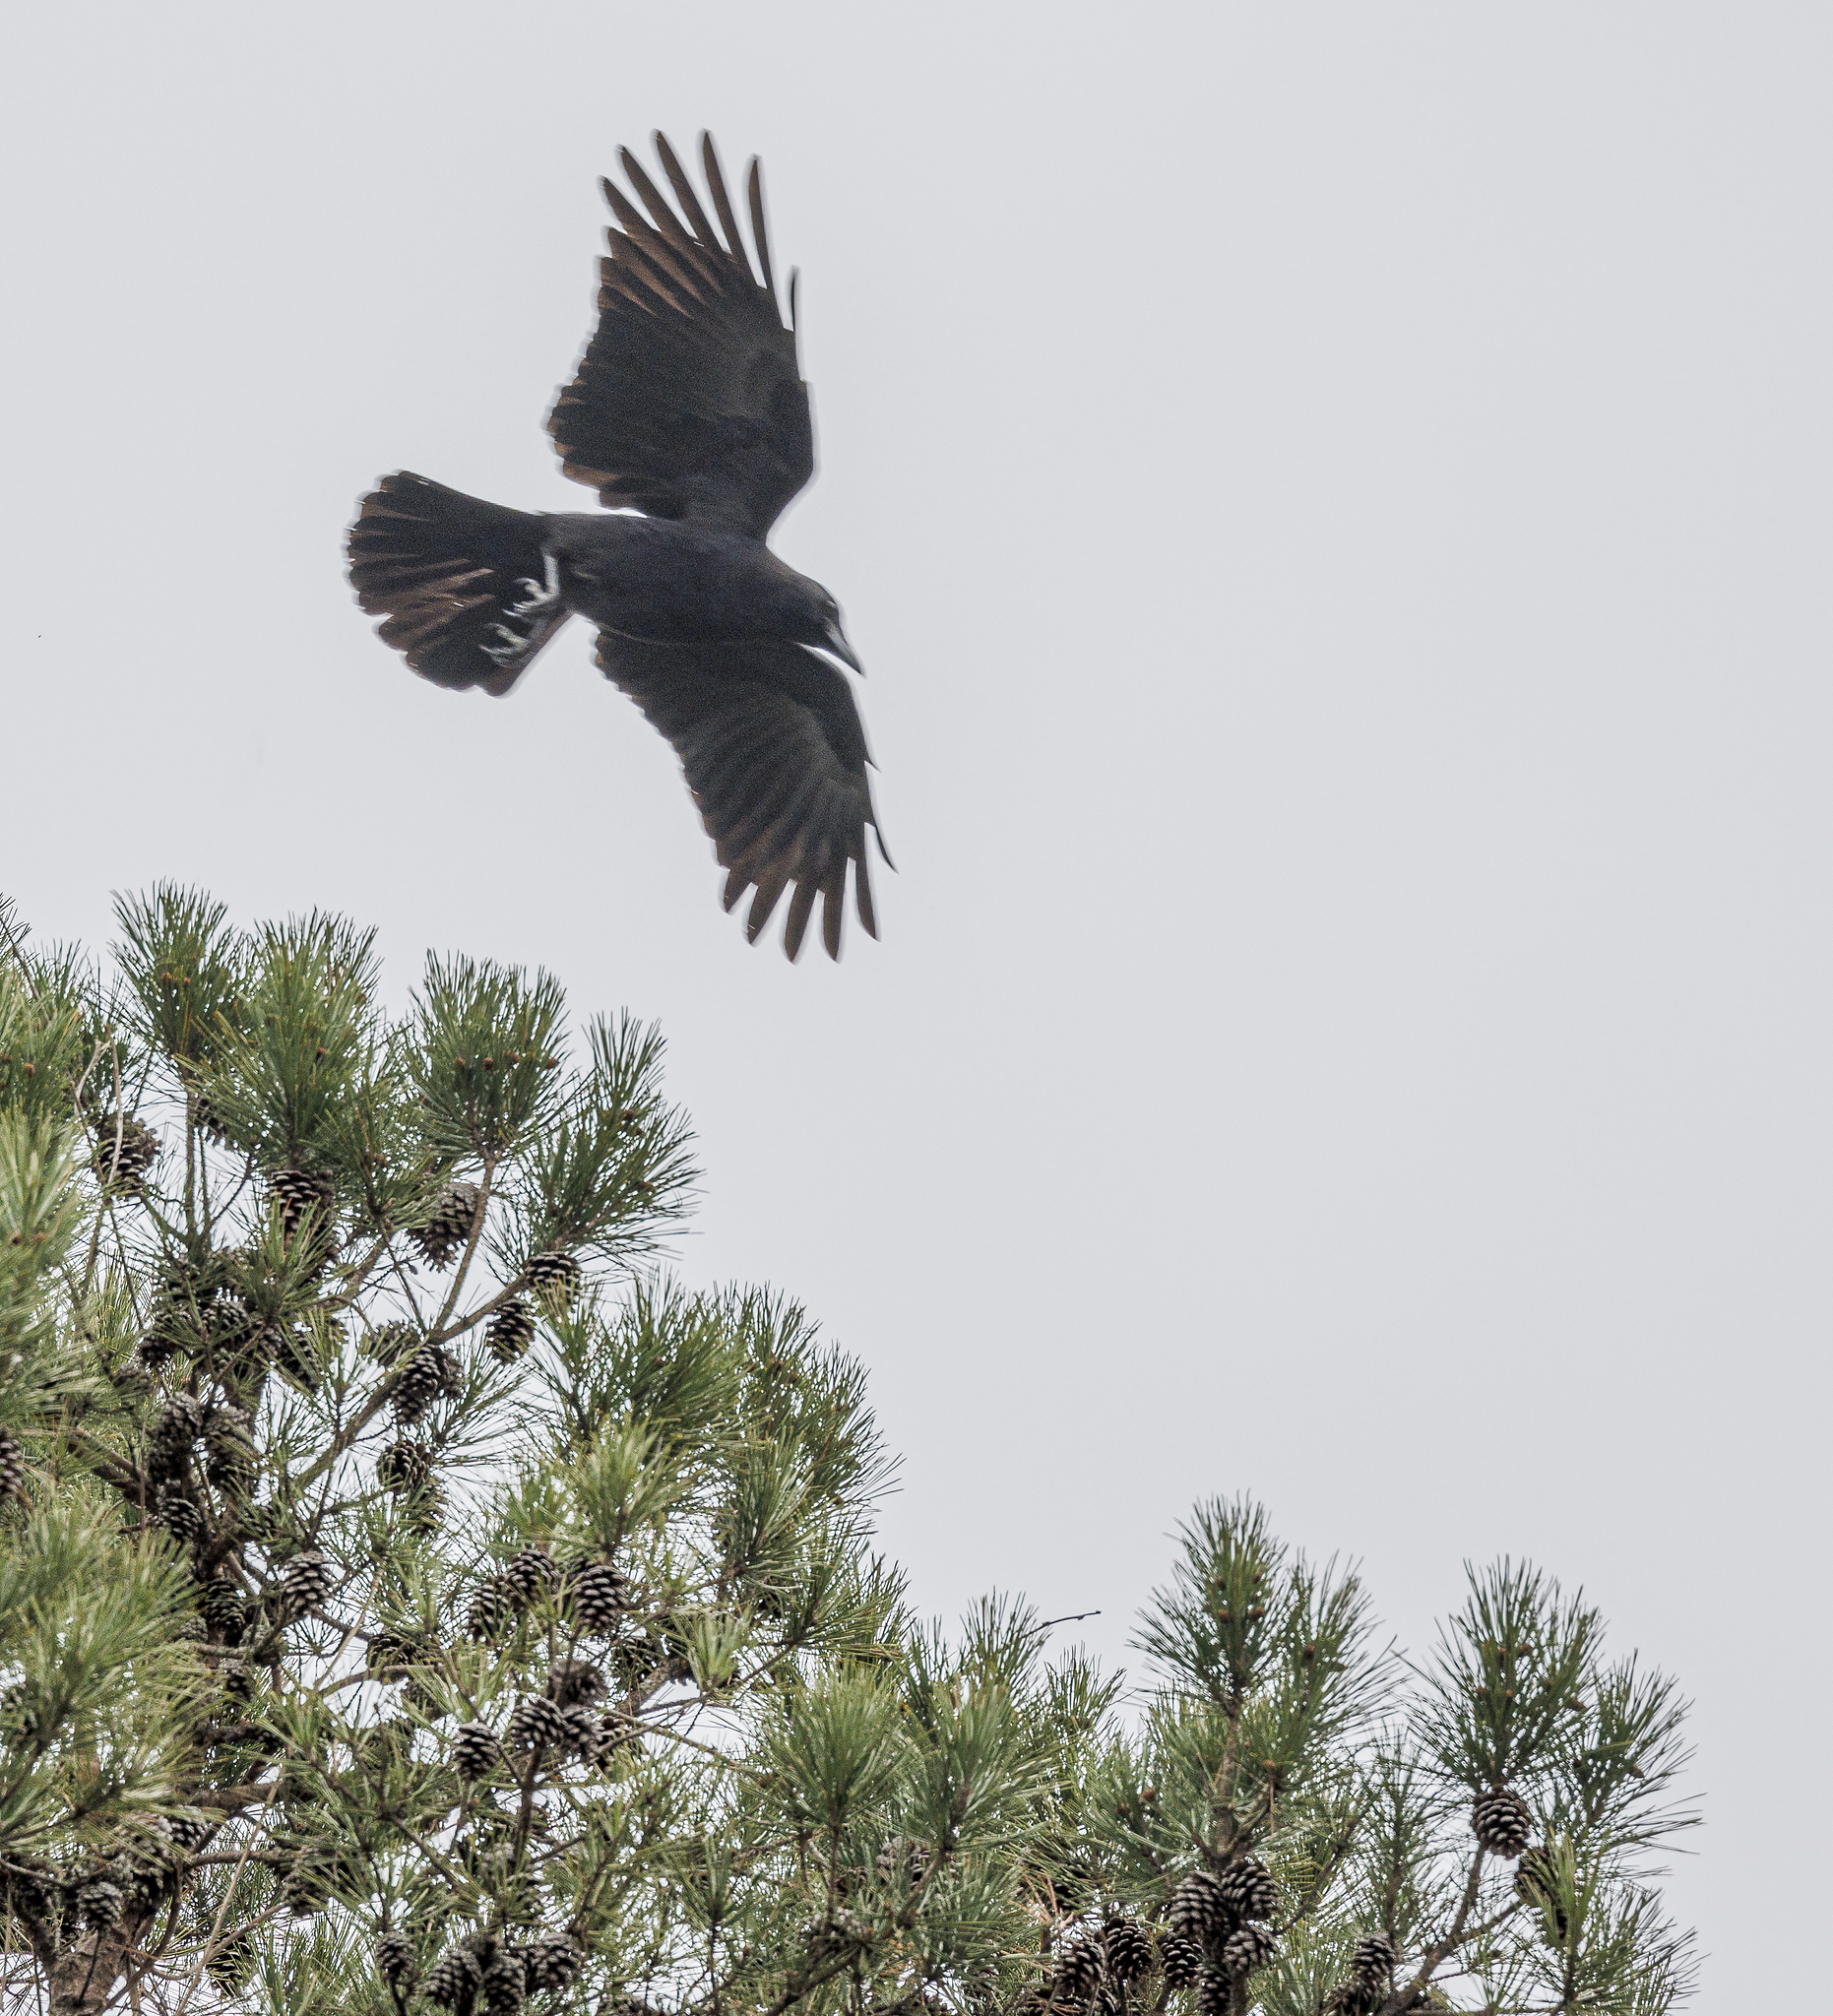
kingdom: Animalia
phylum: Chordata
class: Aves
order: Passeriformes
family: Corvidae
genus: Corvus
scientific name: Corvus brachyrhynchos
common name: American crow
